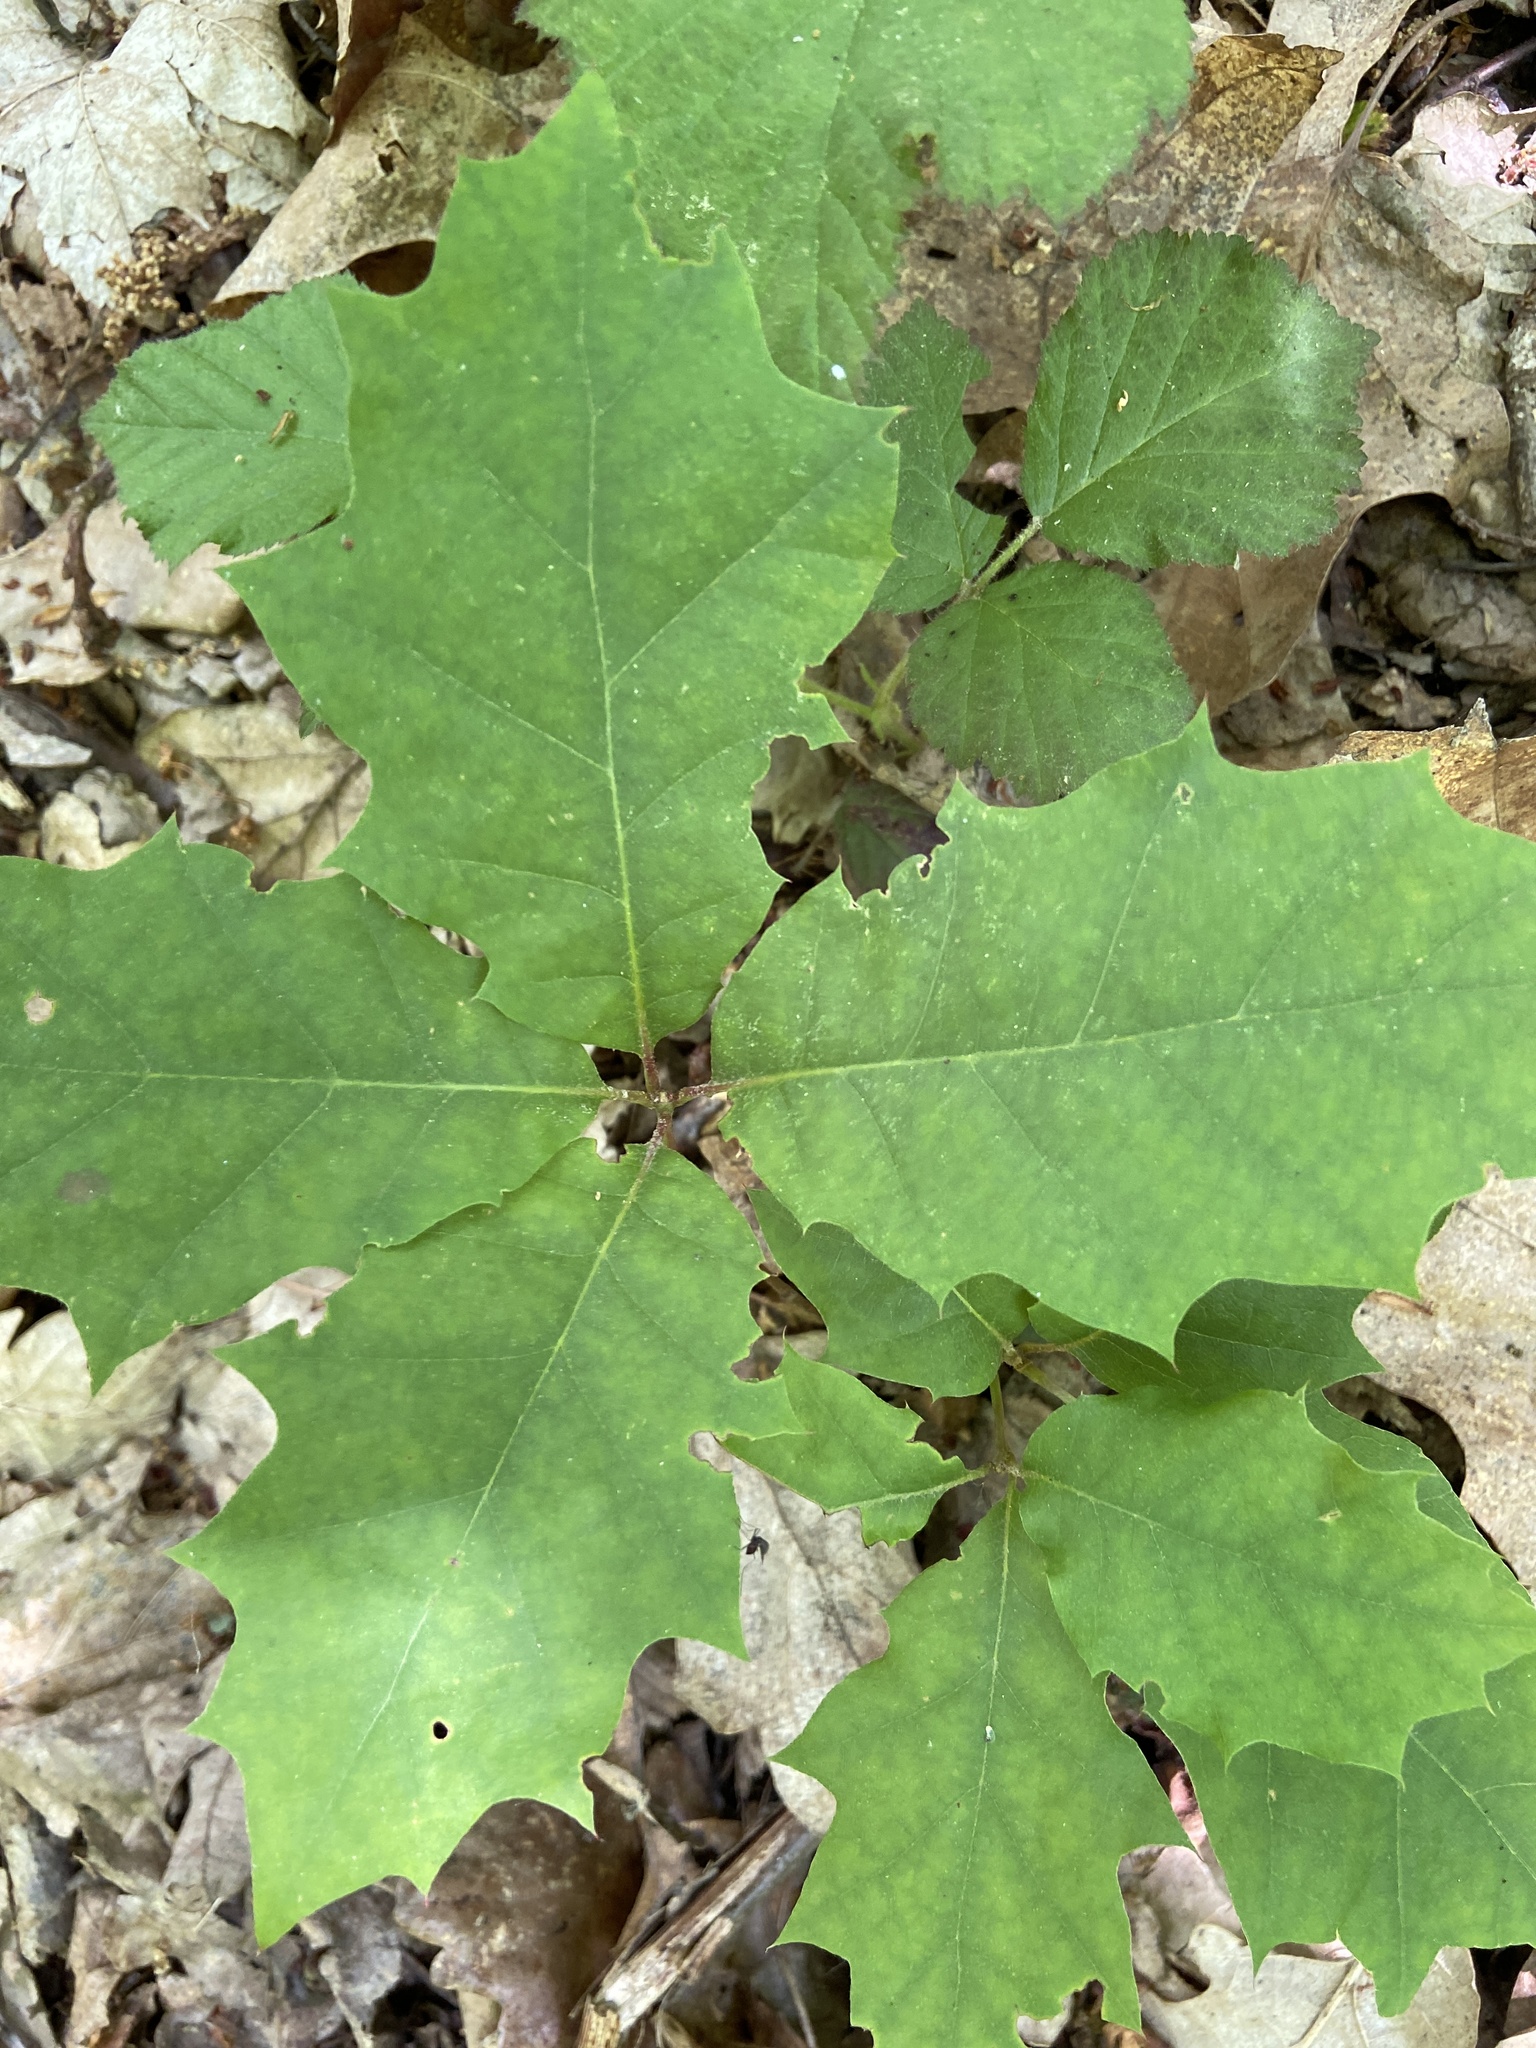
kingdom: Plantae
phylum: Tracheophyta
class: Magnoliopsida
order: Fagales
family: Fagaceae
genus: Quercus
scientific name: Quercus rubra
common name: Red oak
